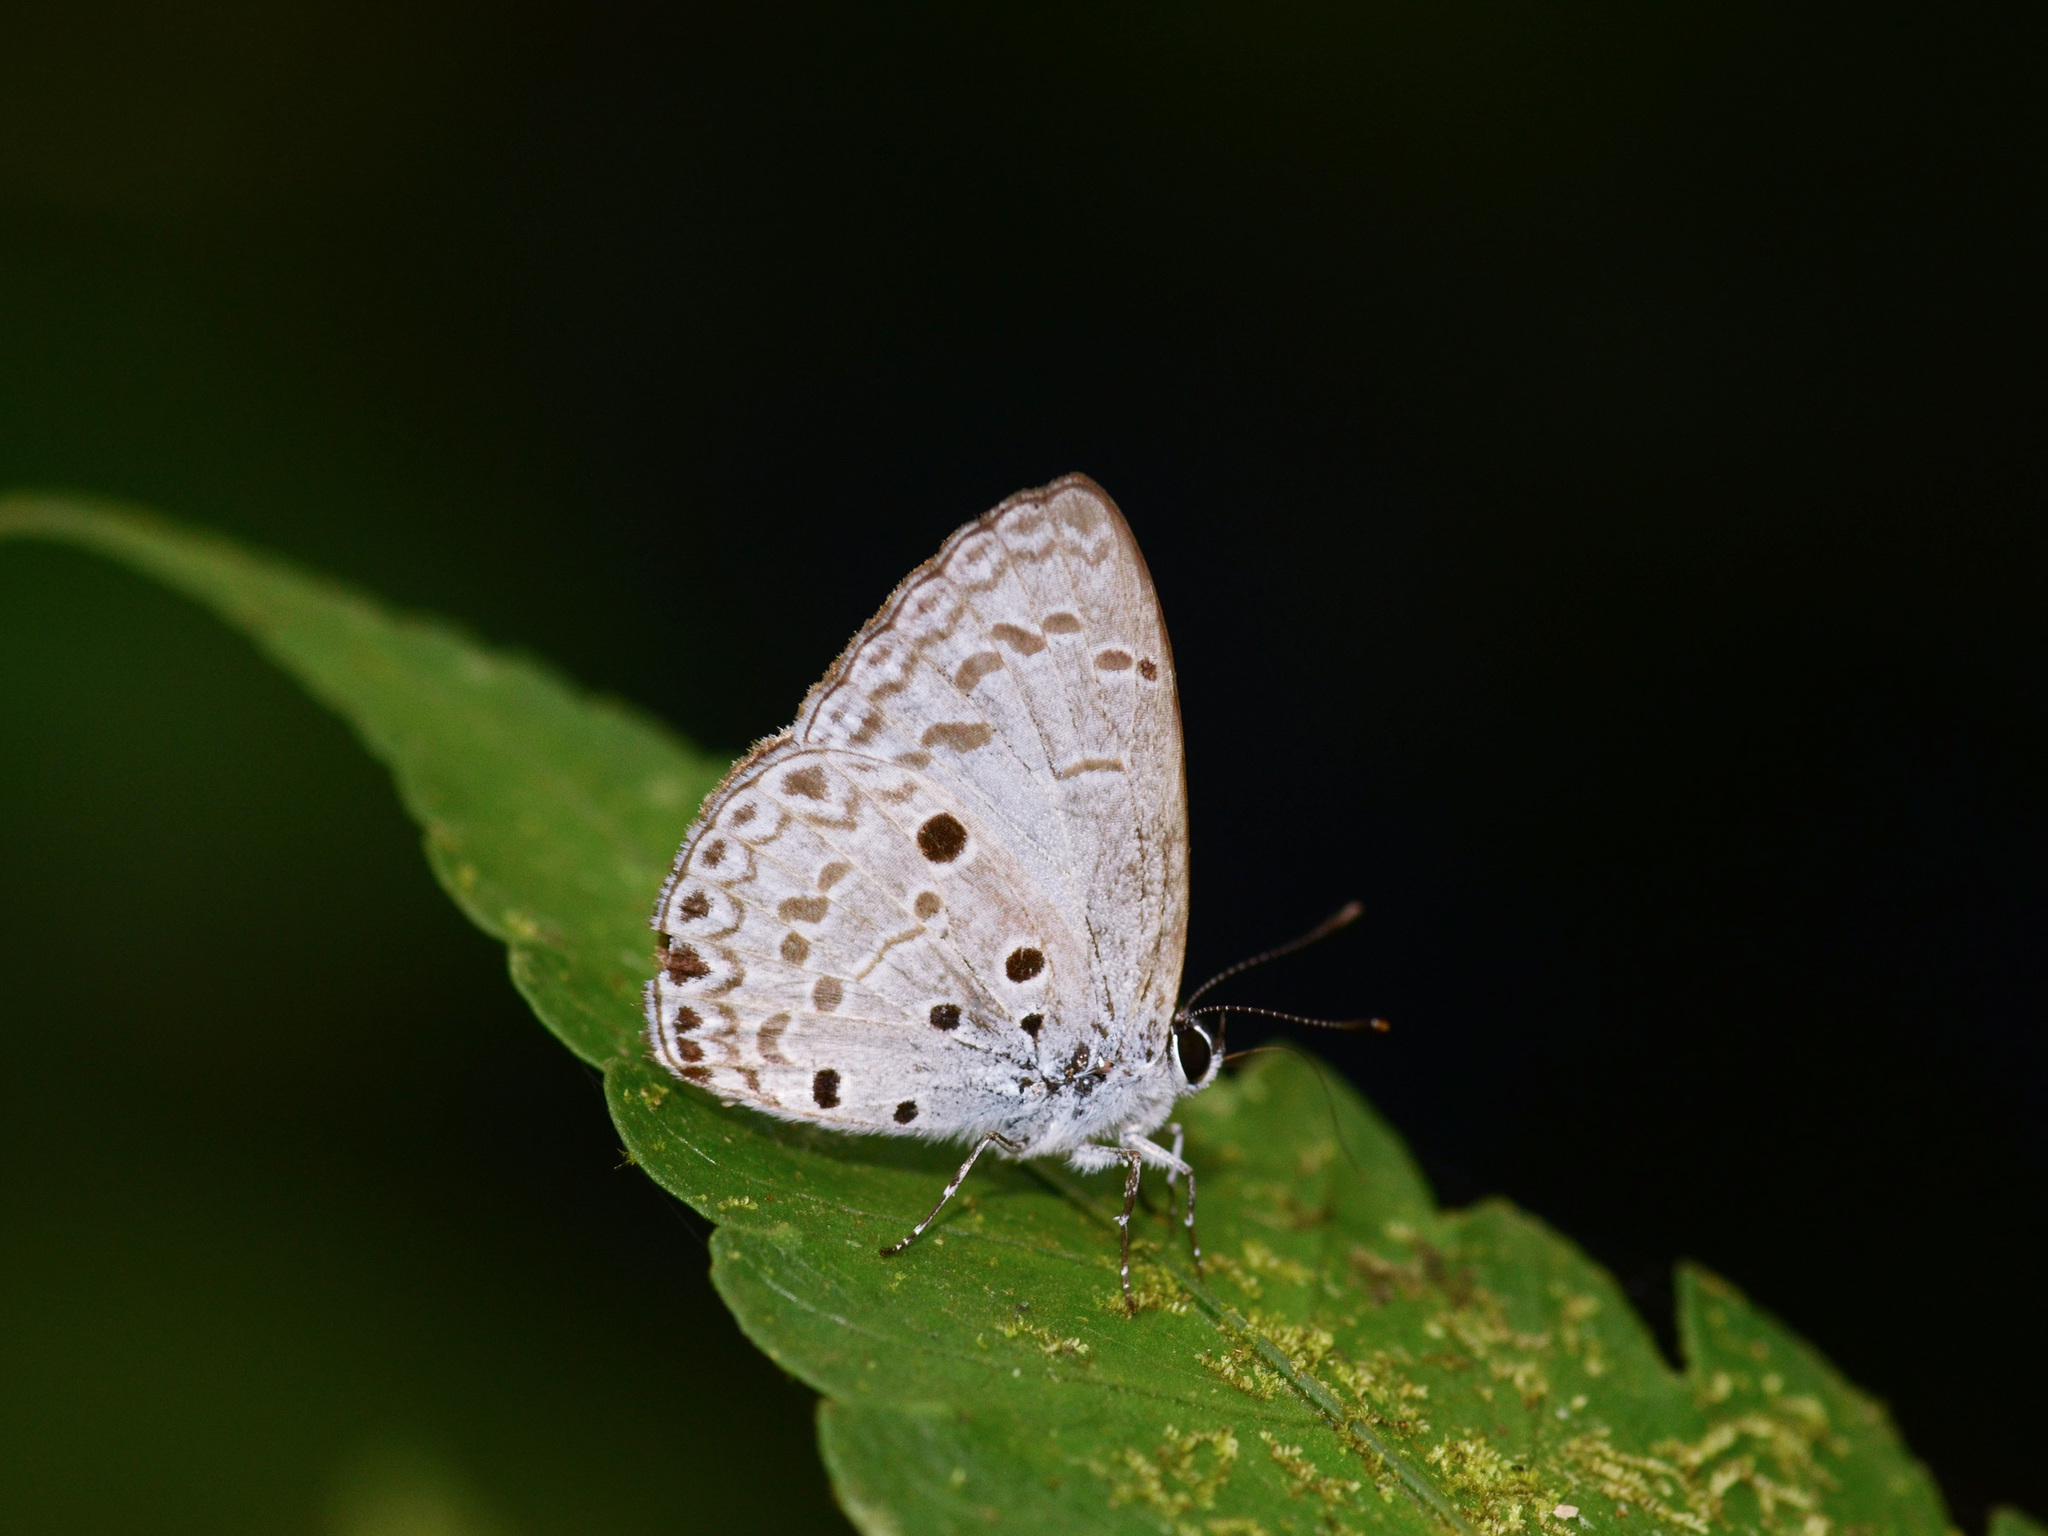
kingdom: Animalia
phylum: Arthropoda
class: Insecta
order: Lepidoptera
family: Lycaenidae
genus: Acytolepis
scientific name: Acytolepis puspa
